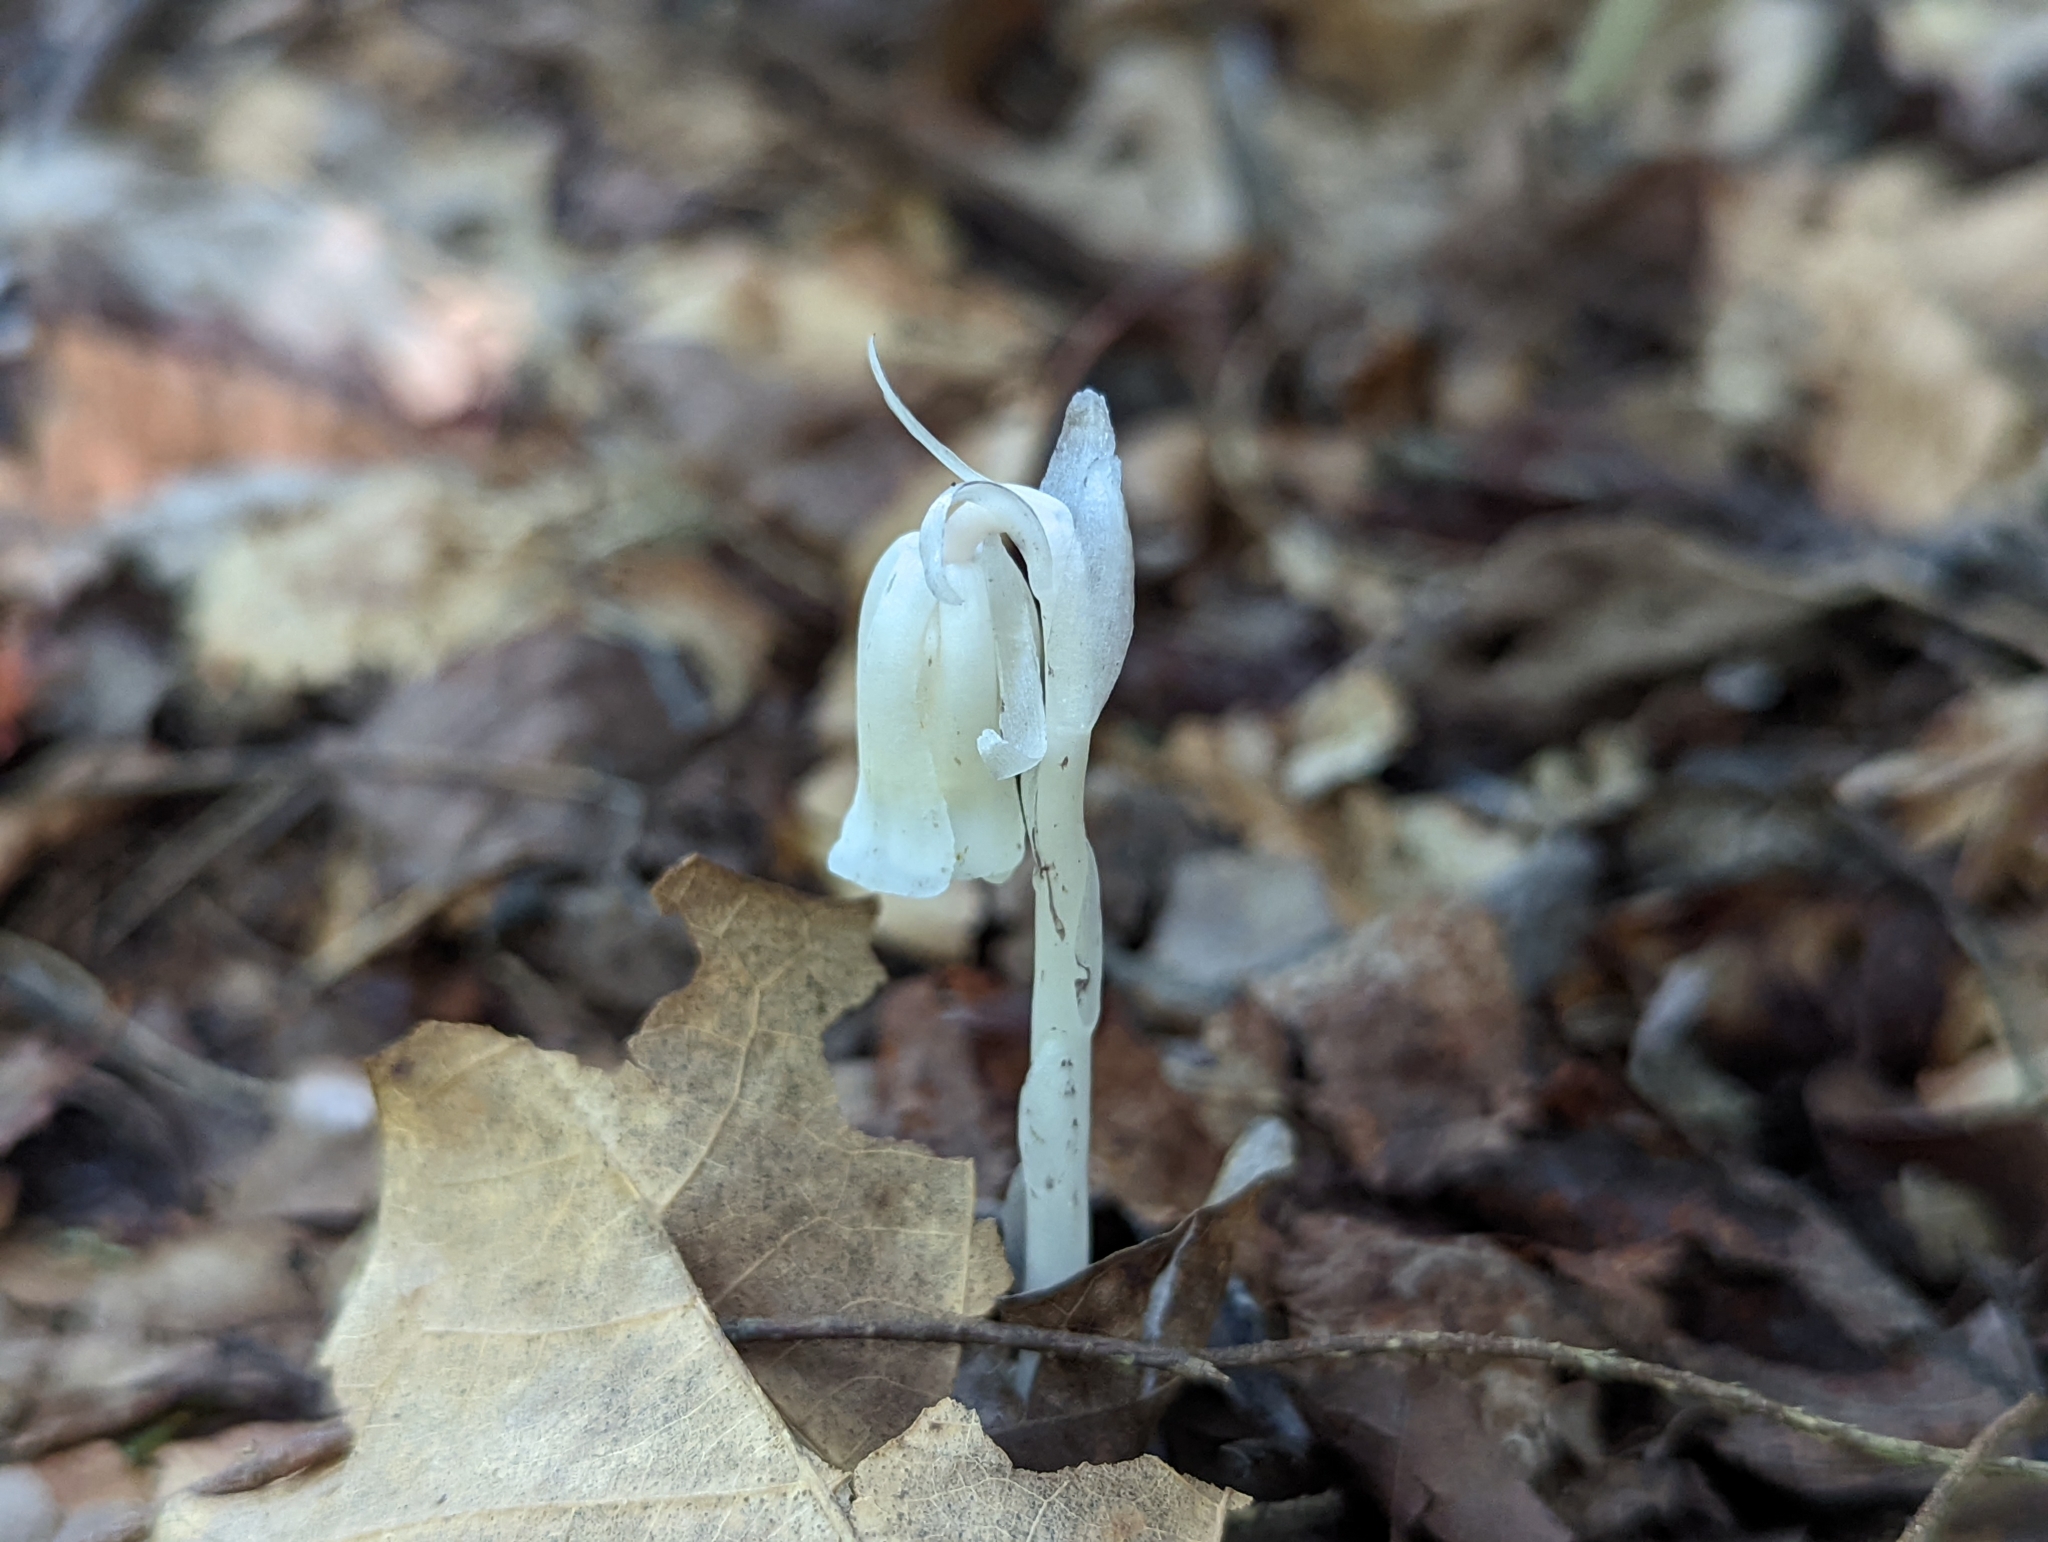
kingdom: Plantae
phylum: Tracheophyta
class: Magnoliopsida
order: Ericales
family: Ericaceae
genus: Monotropa
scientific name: Monotropa uniflora
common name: Convulsion root
